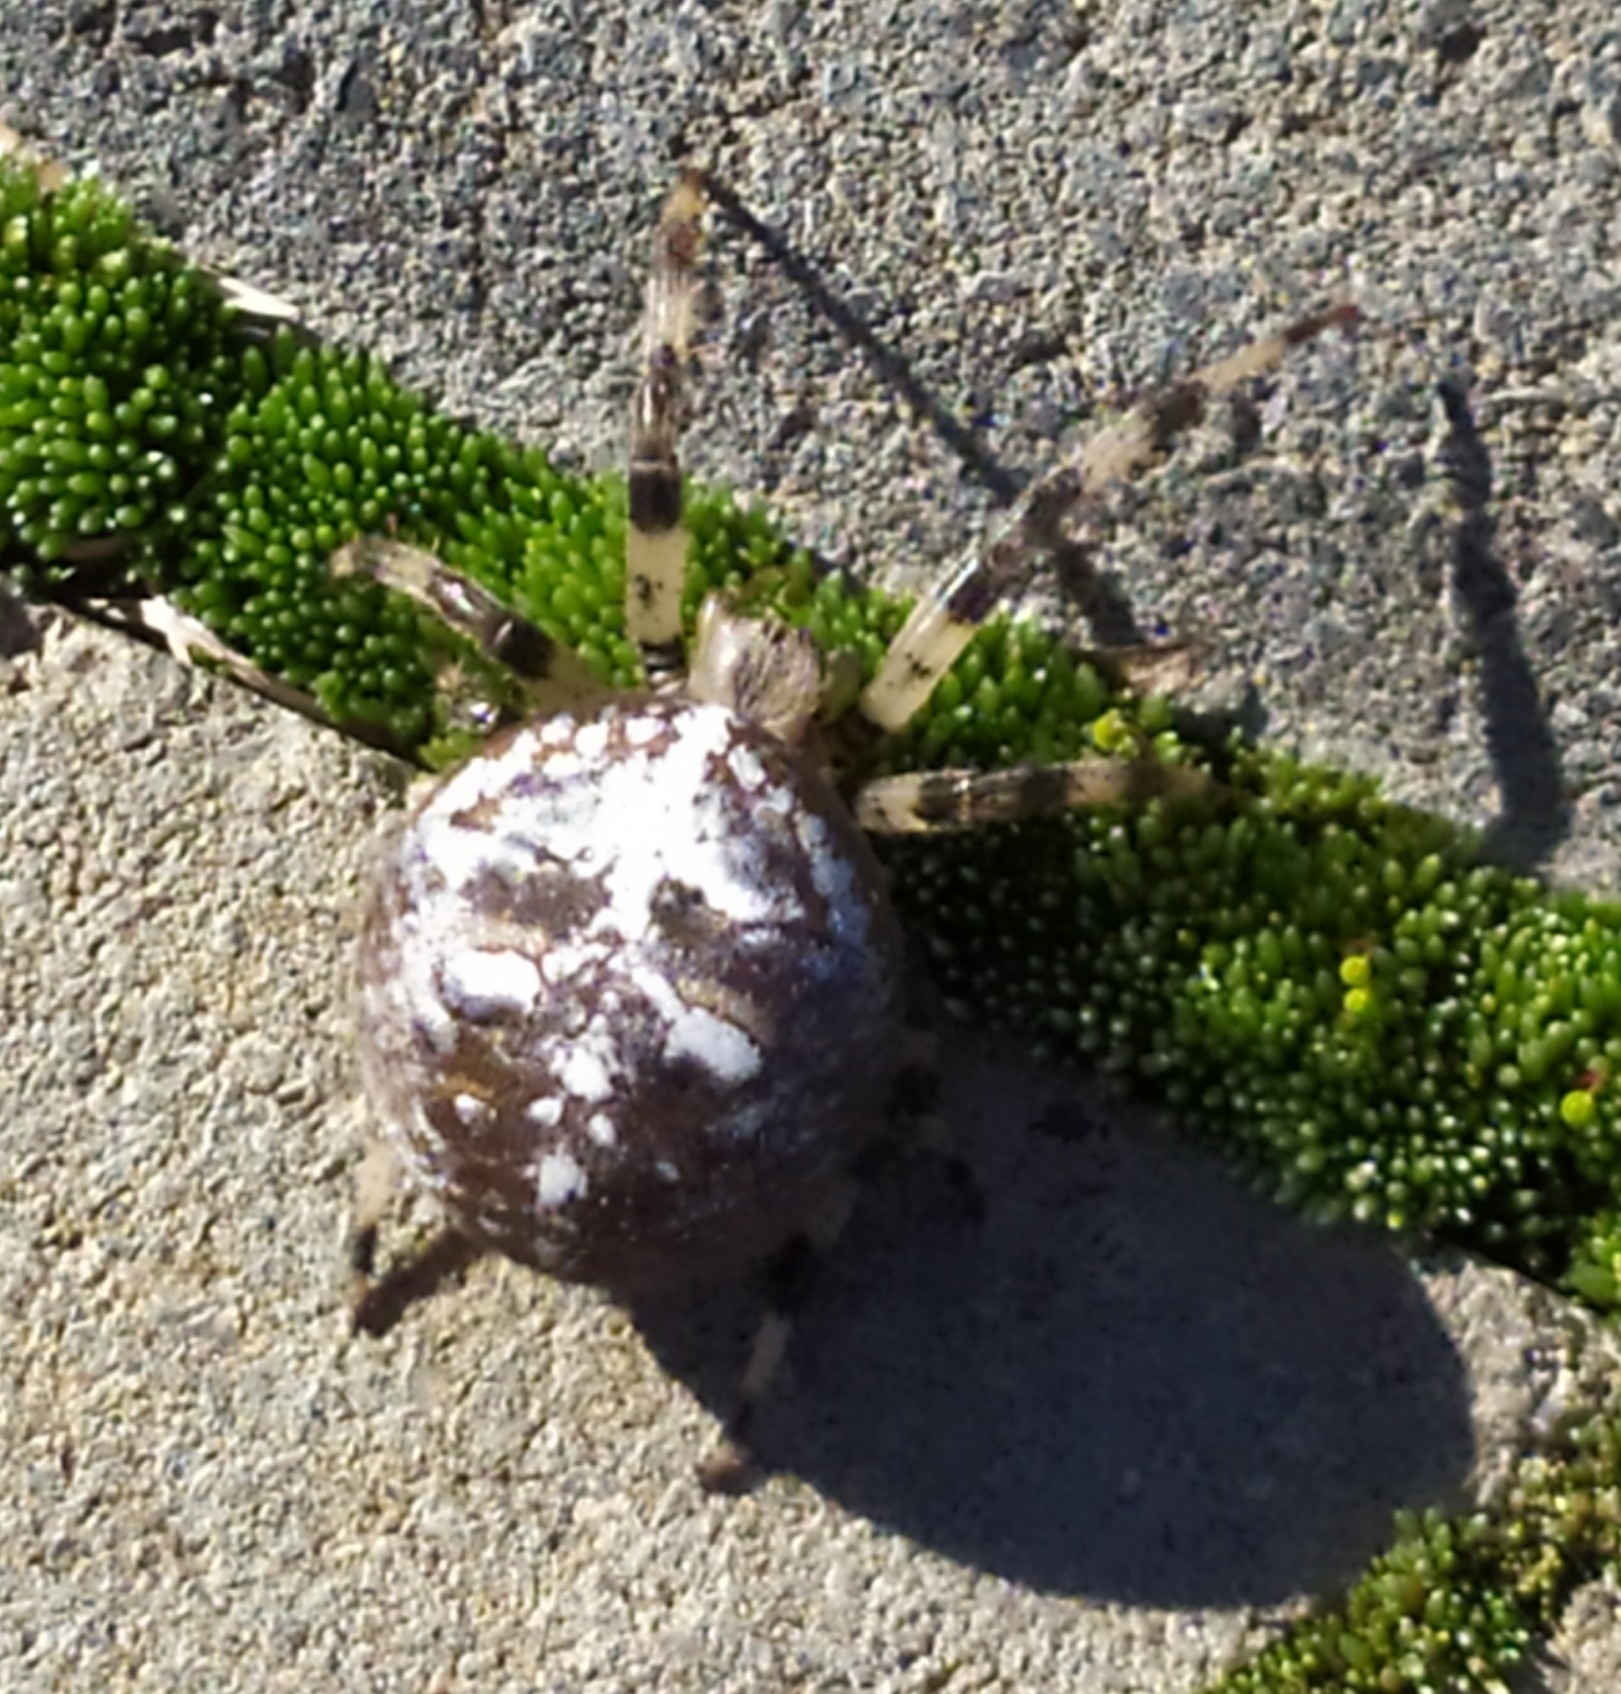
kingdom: Animalia
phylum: Arthropoda
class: Arachnida
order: Araneae
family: Araneidae
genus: Araneus
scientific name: Araneus quadratus
